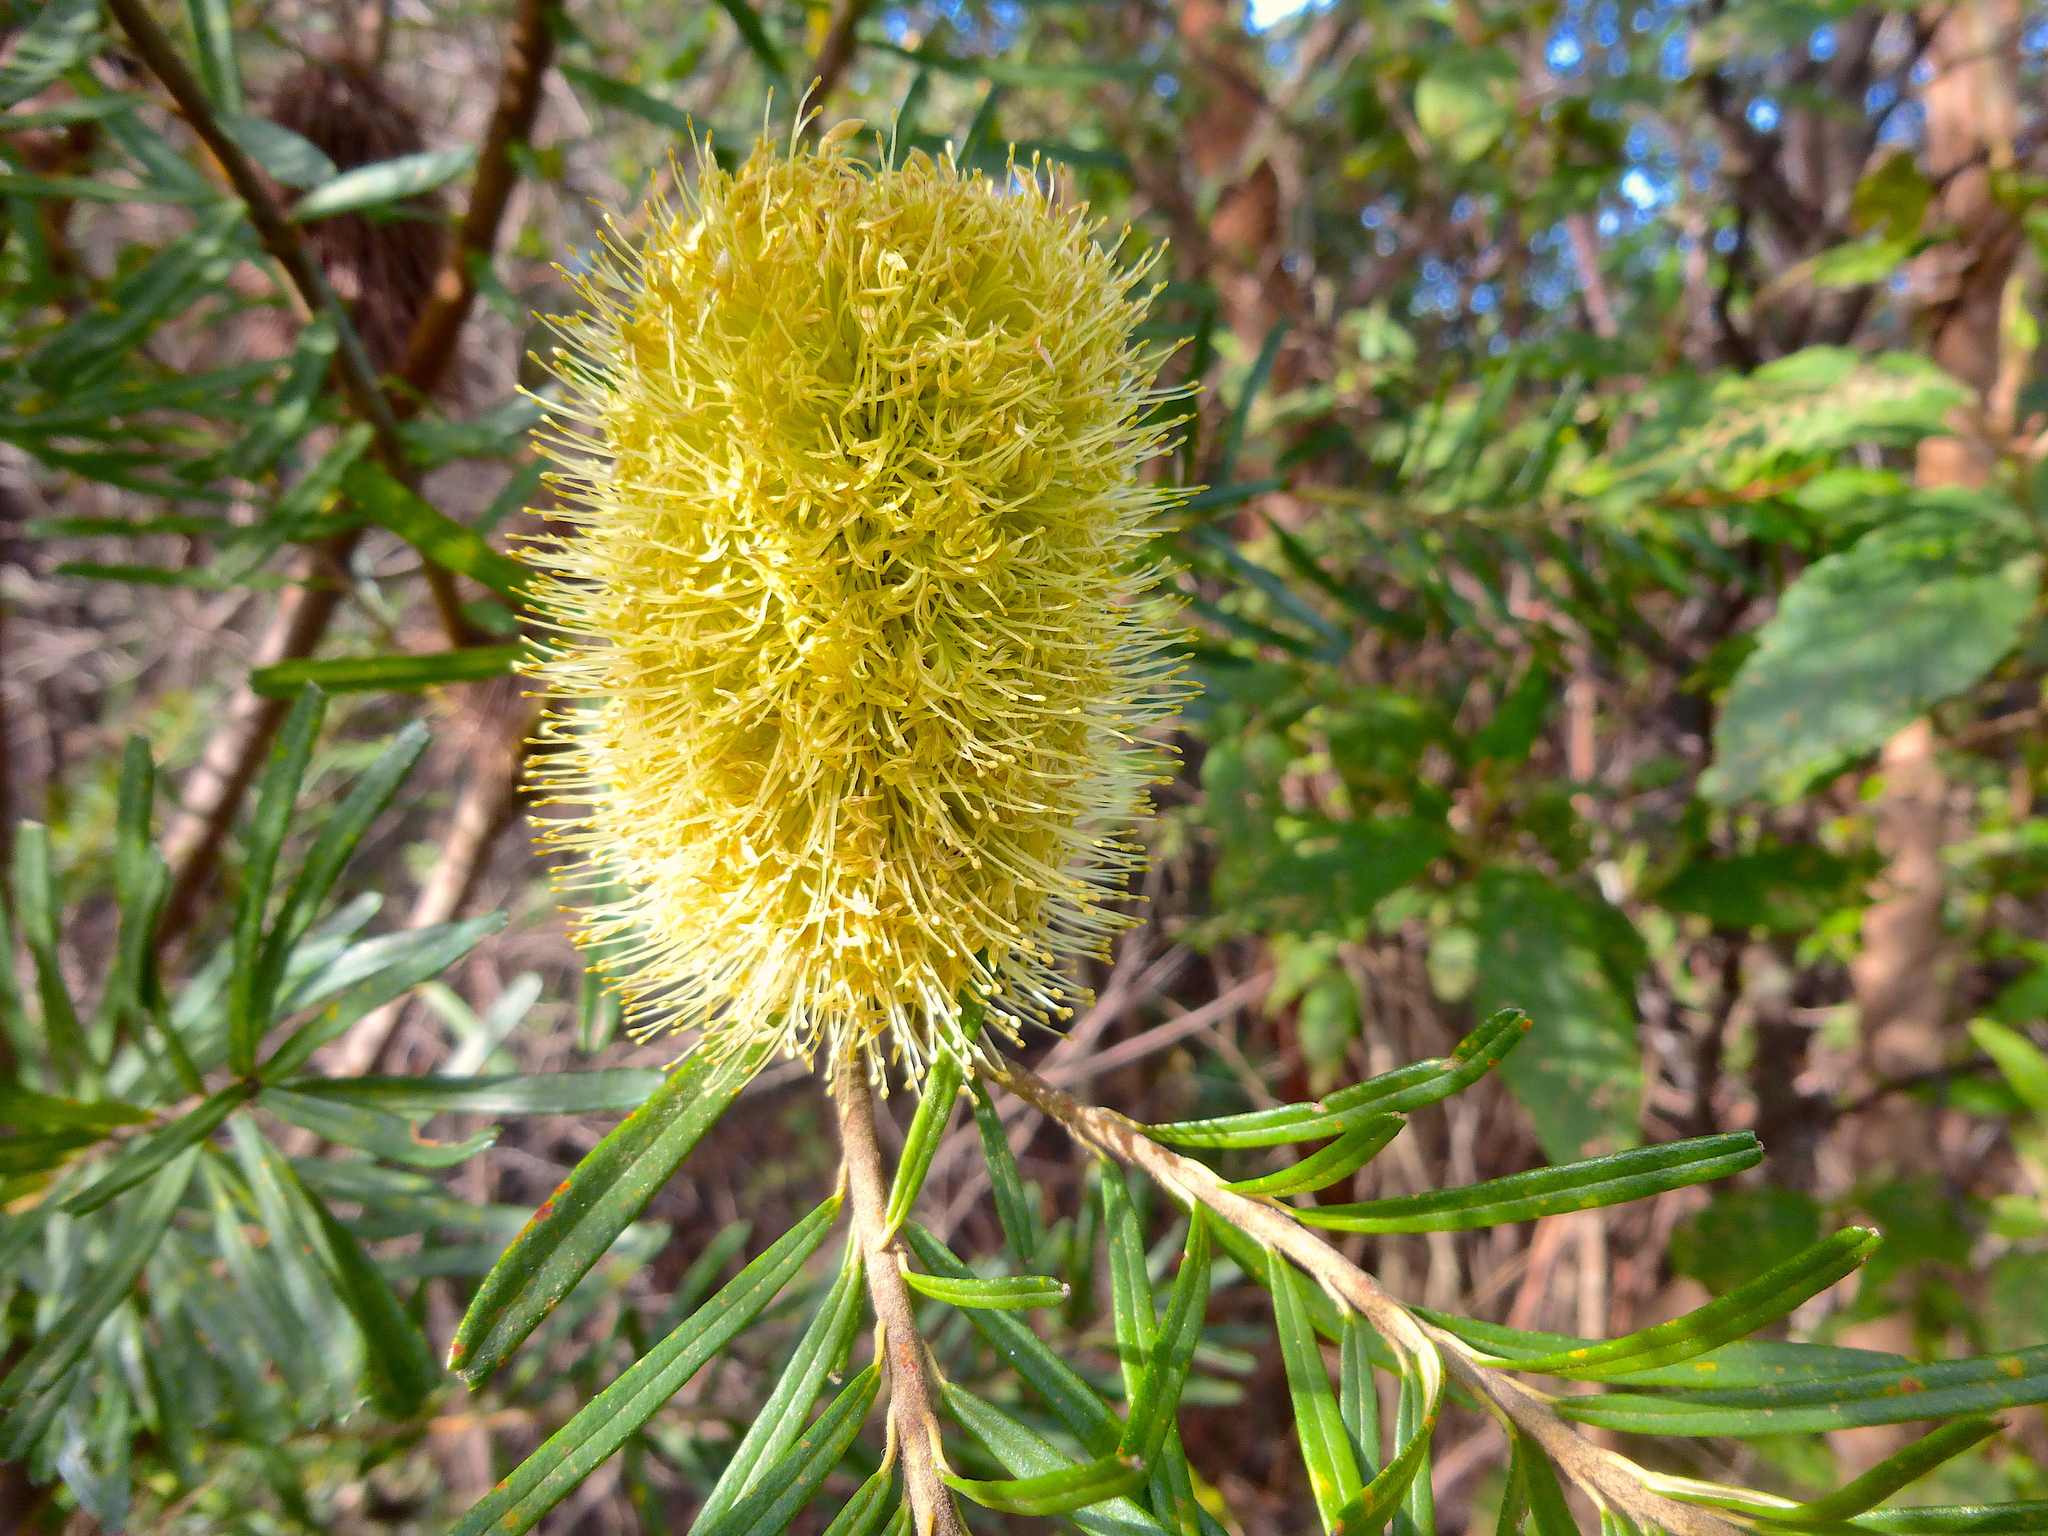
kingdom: Plantae
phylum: Tracheophyta
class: Magnoliopsida
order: Proteales
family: Proteaceae
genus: Banksia
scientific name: Banksia marginata
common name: Silver banksia
